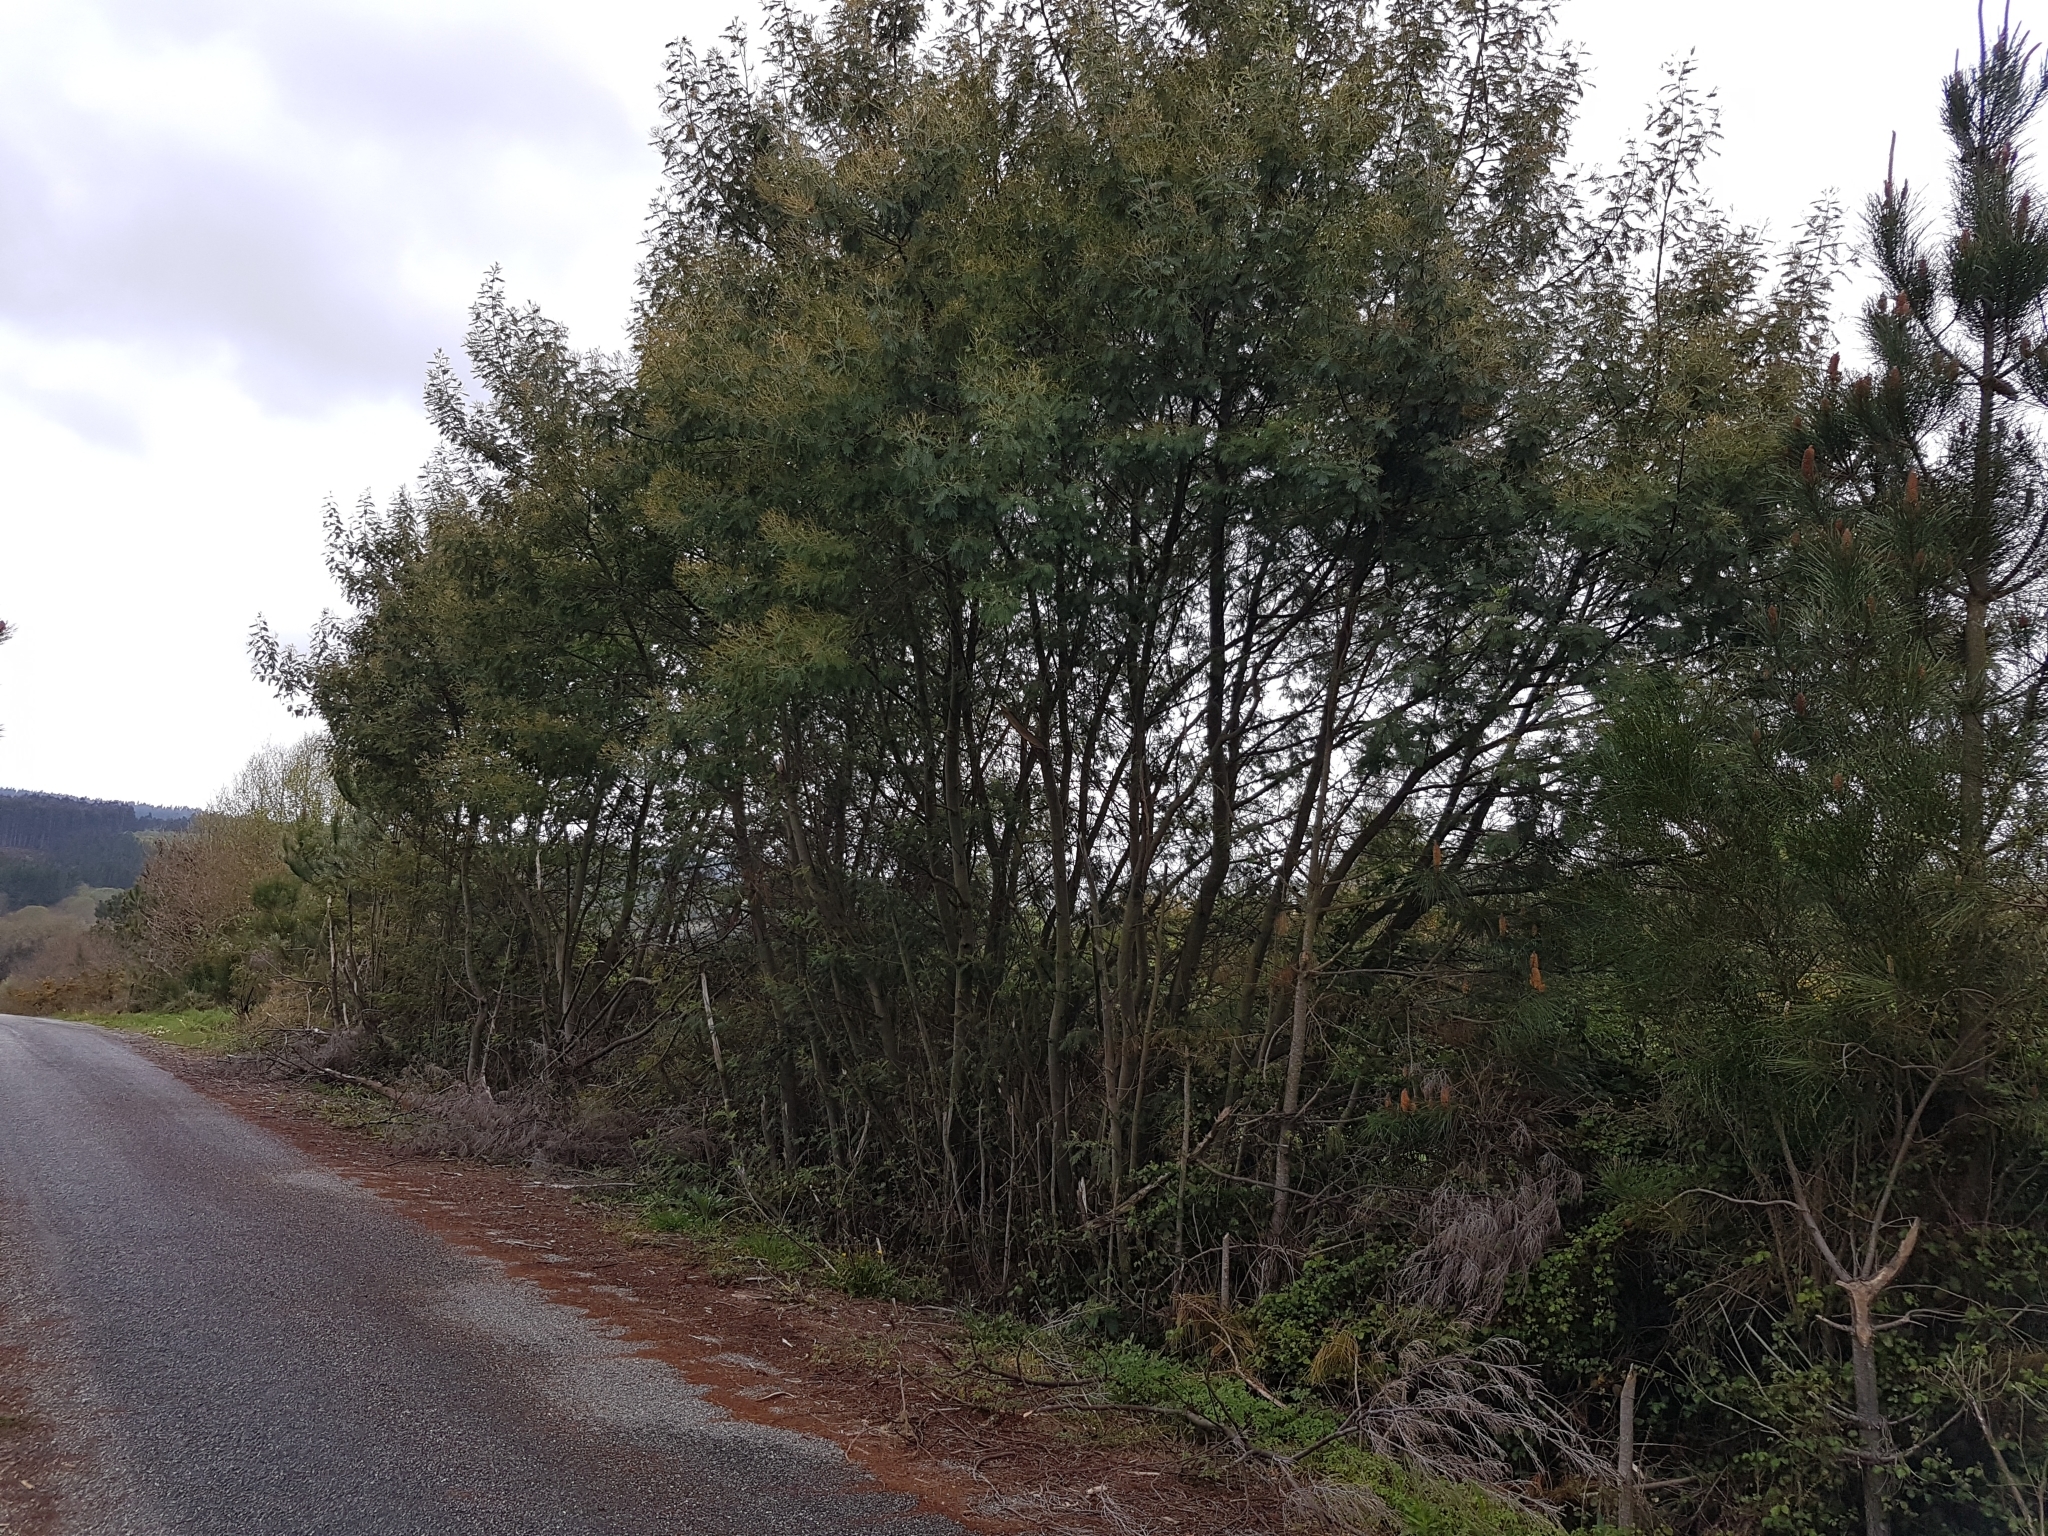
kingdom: Plantae
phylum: Tracheophyta
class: Magnoliopsida
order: Fabales
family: Fabaceae
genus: Acacia
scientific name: Acacia dealbata
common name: Silver wattle
